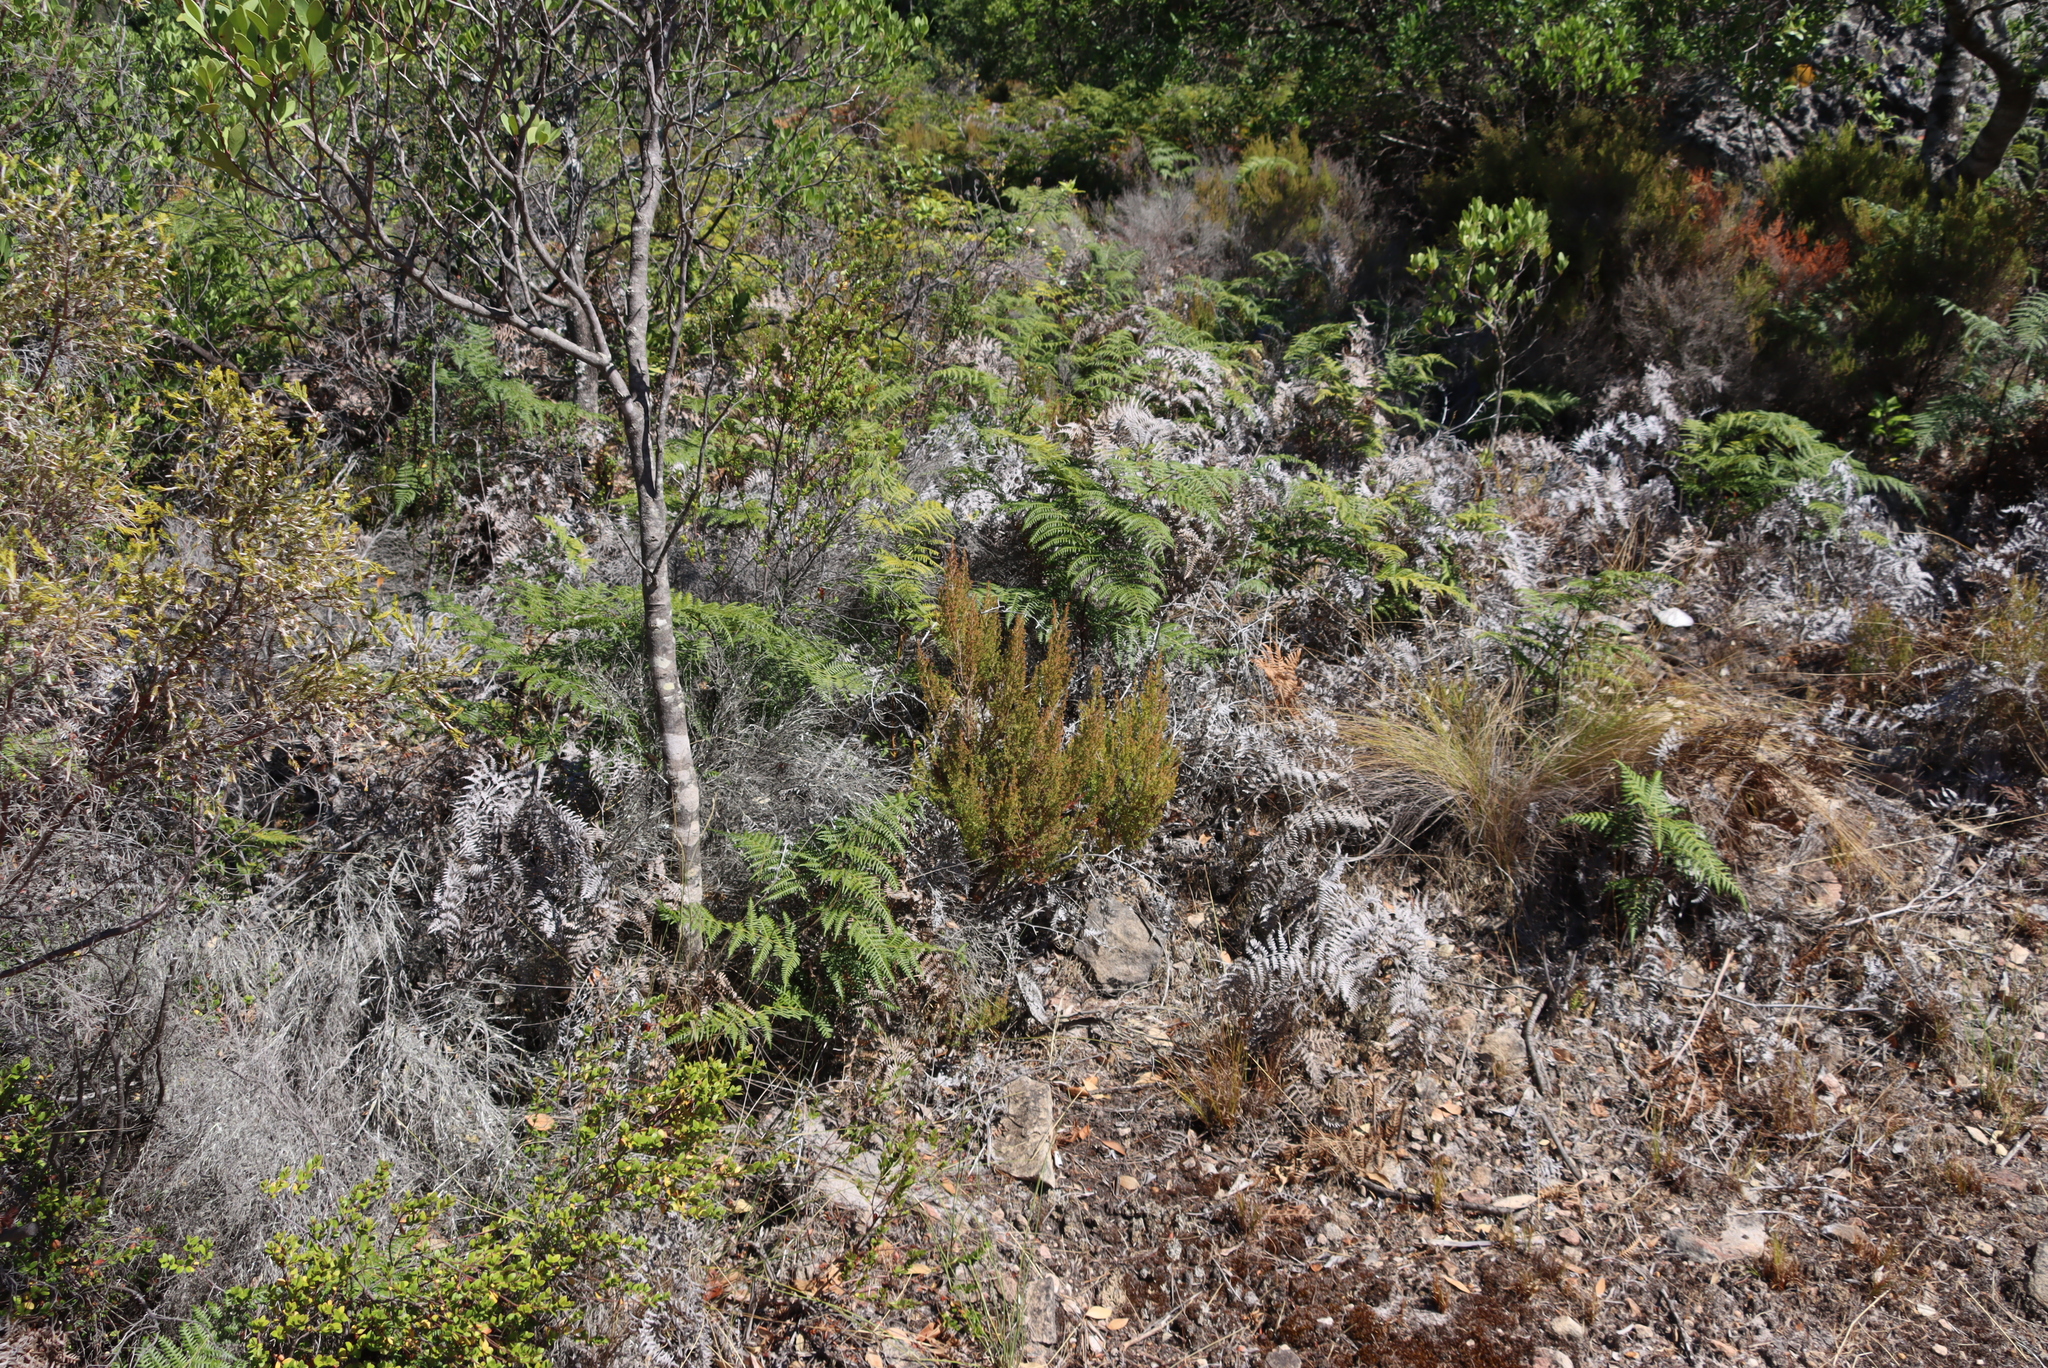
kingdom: Plantae
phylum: Tracheophyta
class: Magnoliopsida
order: Ericales
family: Primulaceae
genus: Myrsine
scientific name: Myrsine africana
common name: African-boxwood
